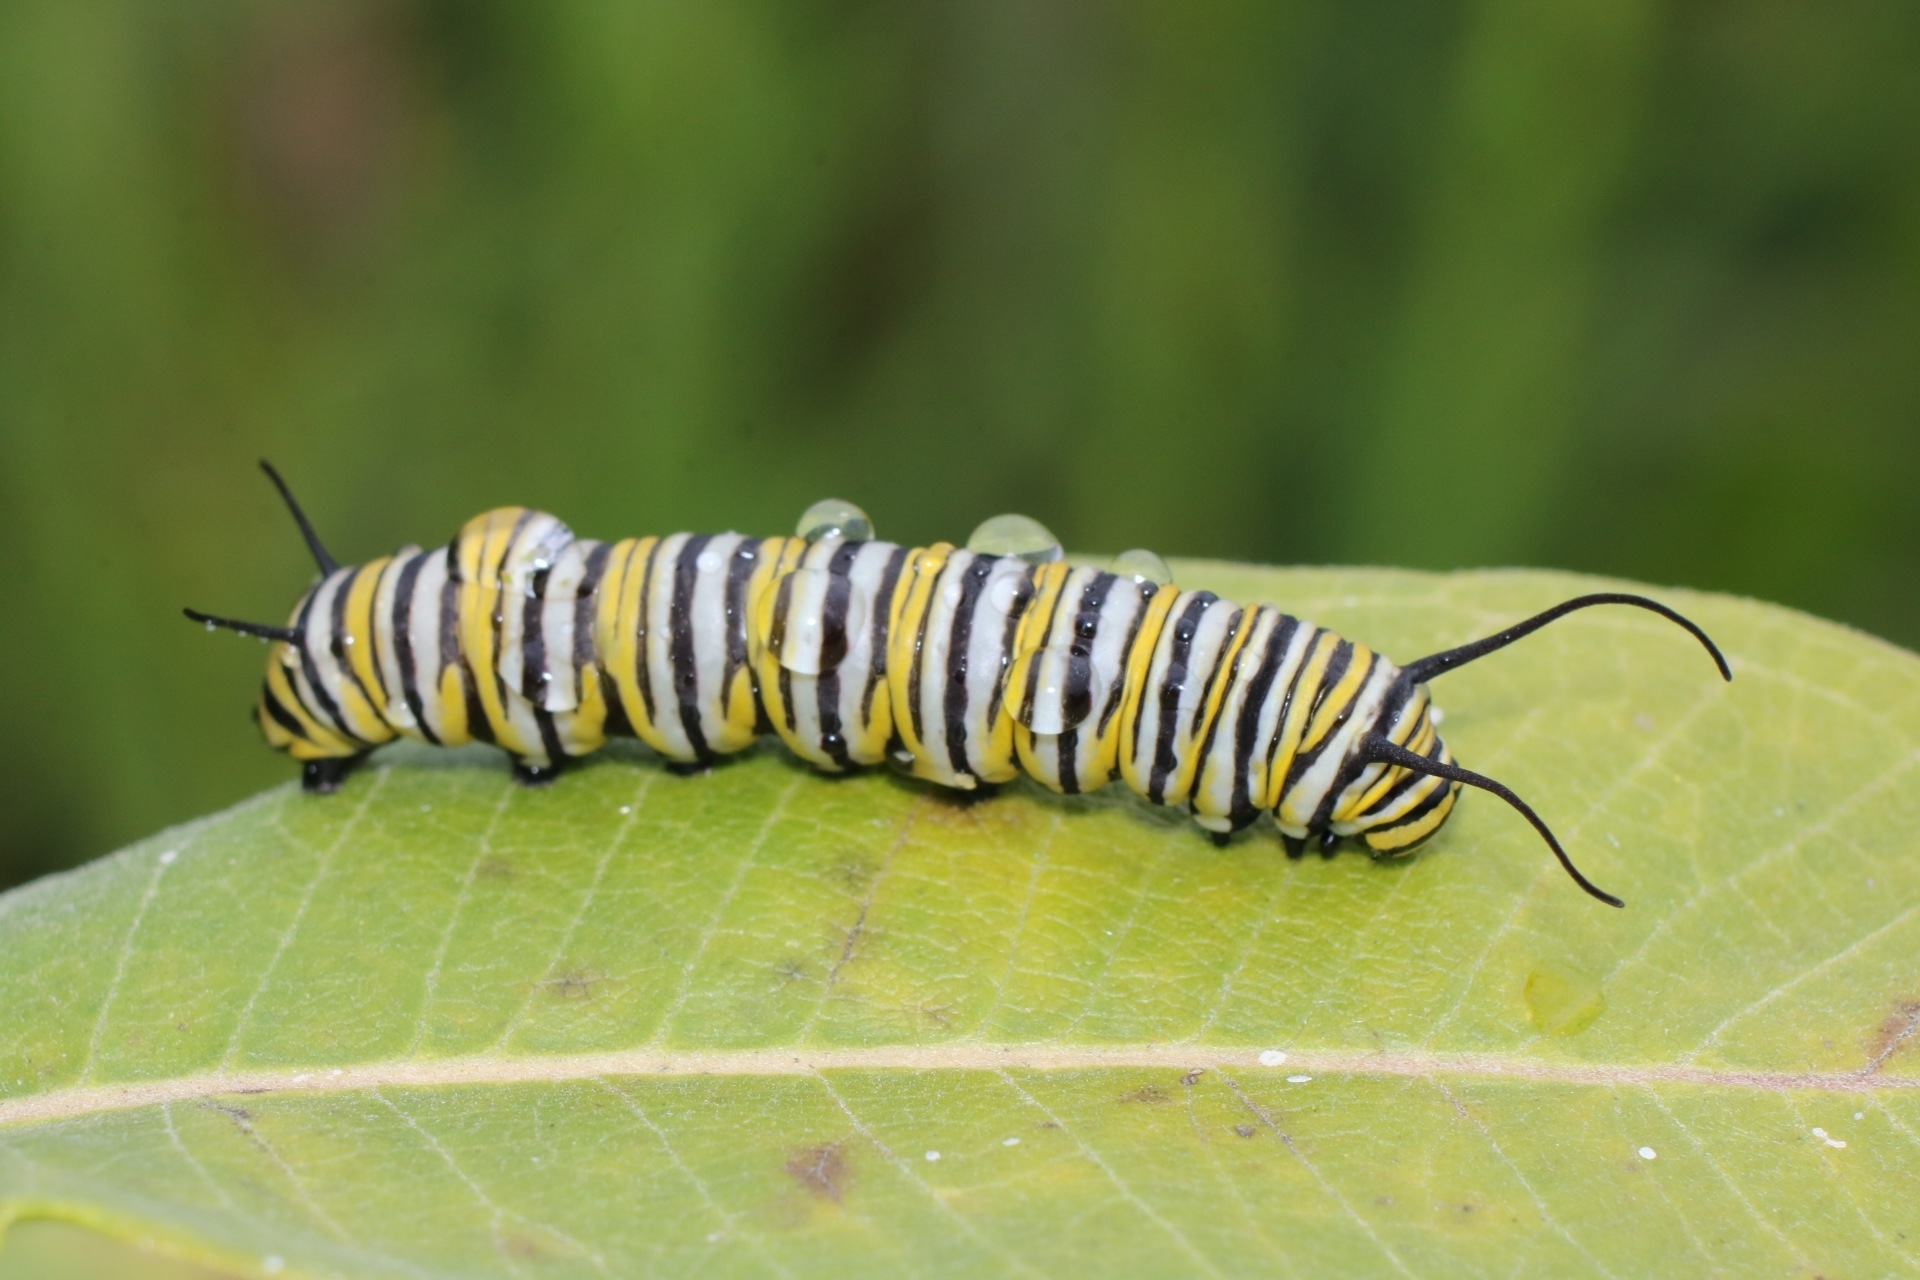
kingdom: Animalia
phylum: Arthropoda
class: Insecta
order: Lepidoptera
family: Nymphalidae
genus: Danaus
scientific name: Danaus plexippus
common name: Monarch
